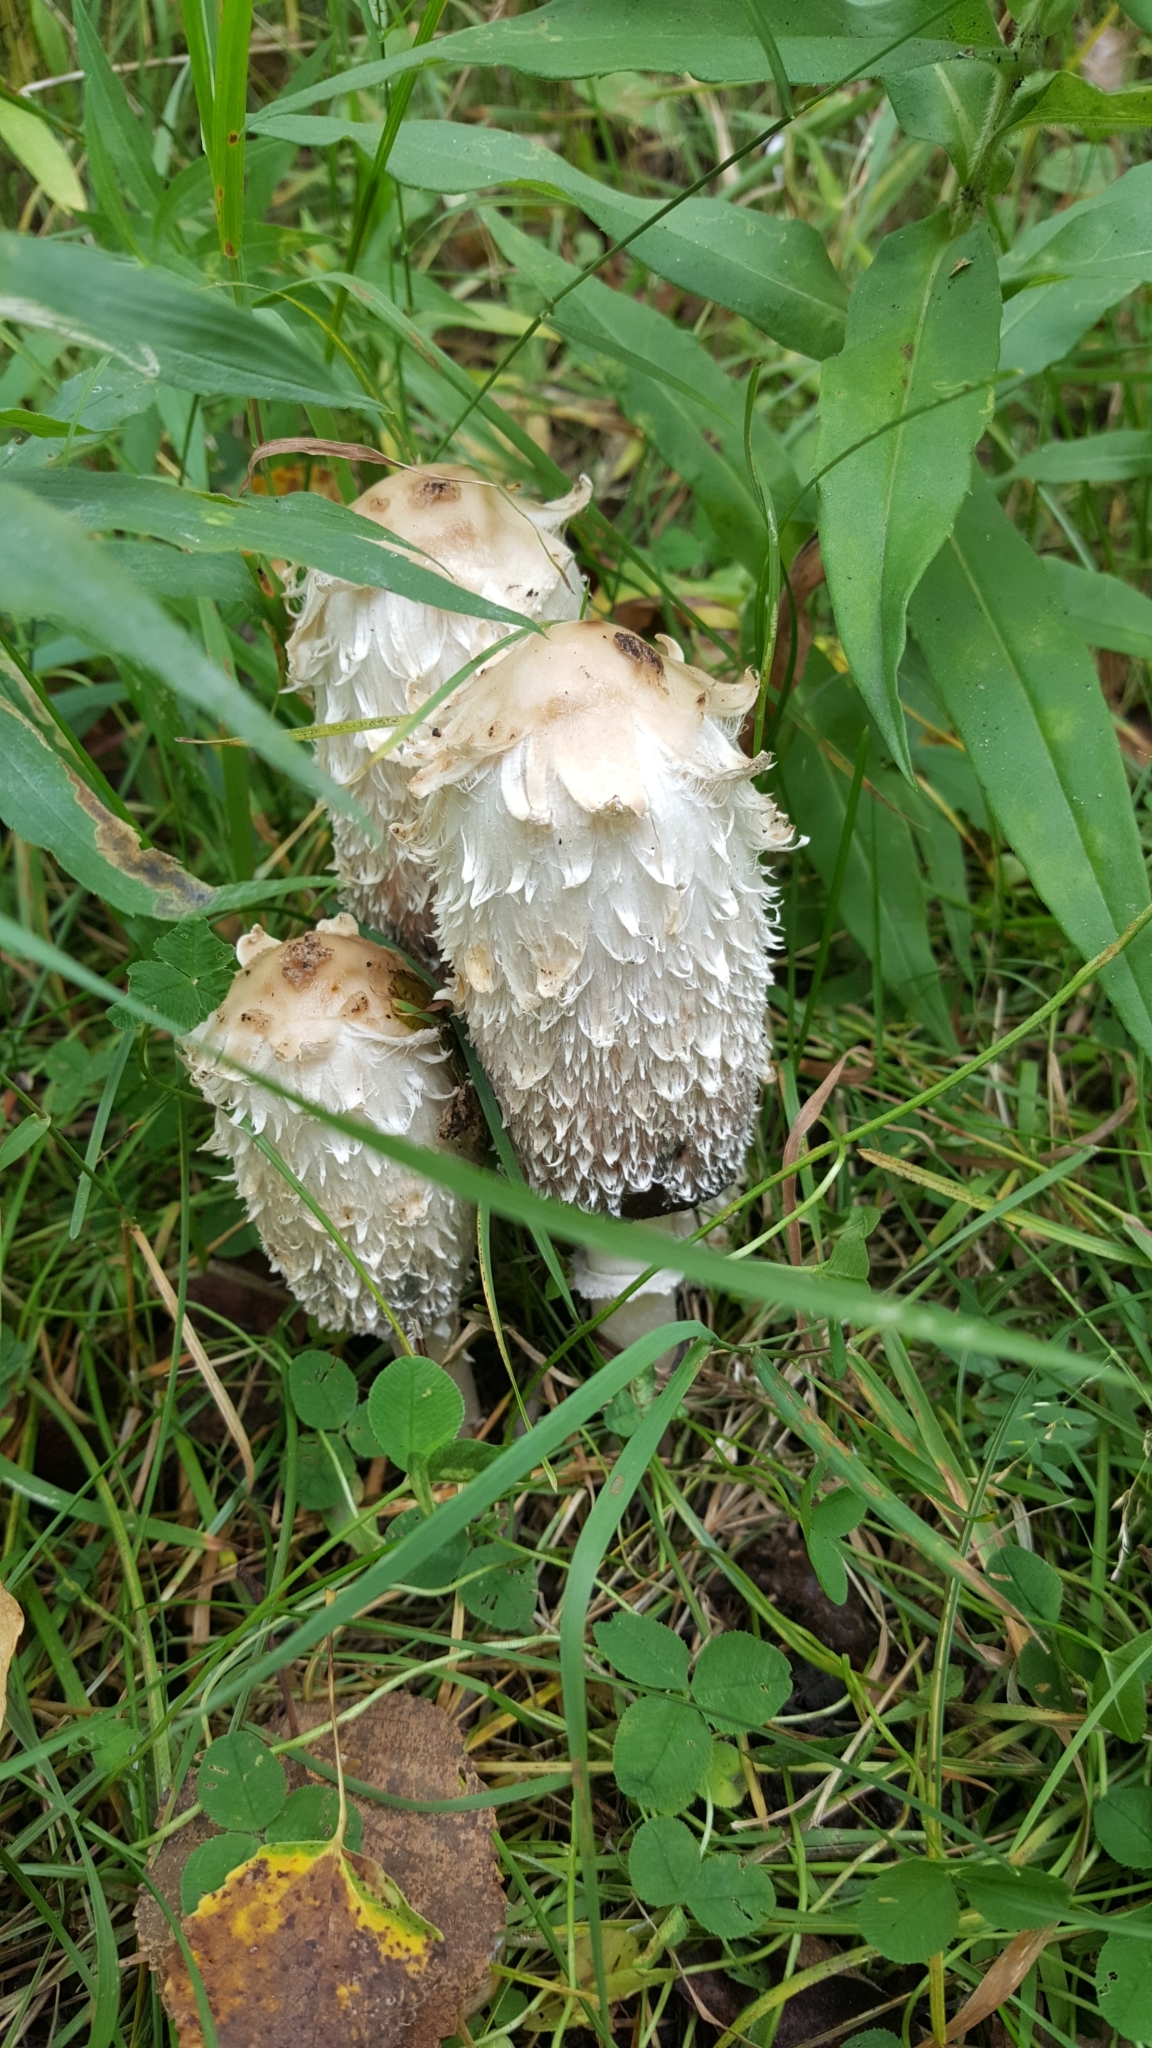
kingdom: Fungi
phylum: Basidiomycota
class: Agaricomycetes
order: Agaricales
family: Agaricaceae
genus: Coprinus
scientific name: Coprinus comatus
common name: Lawyer's wig
